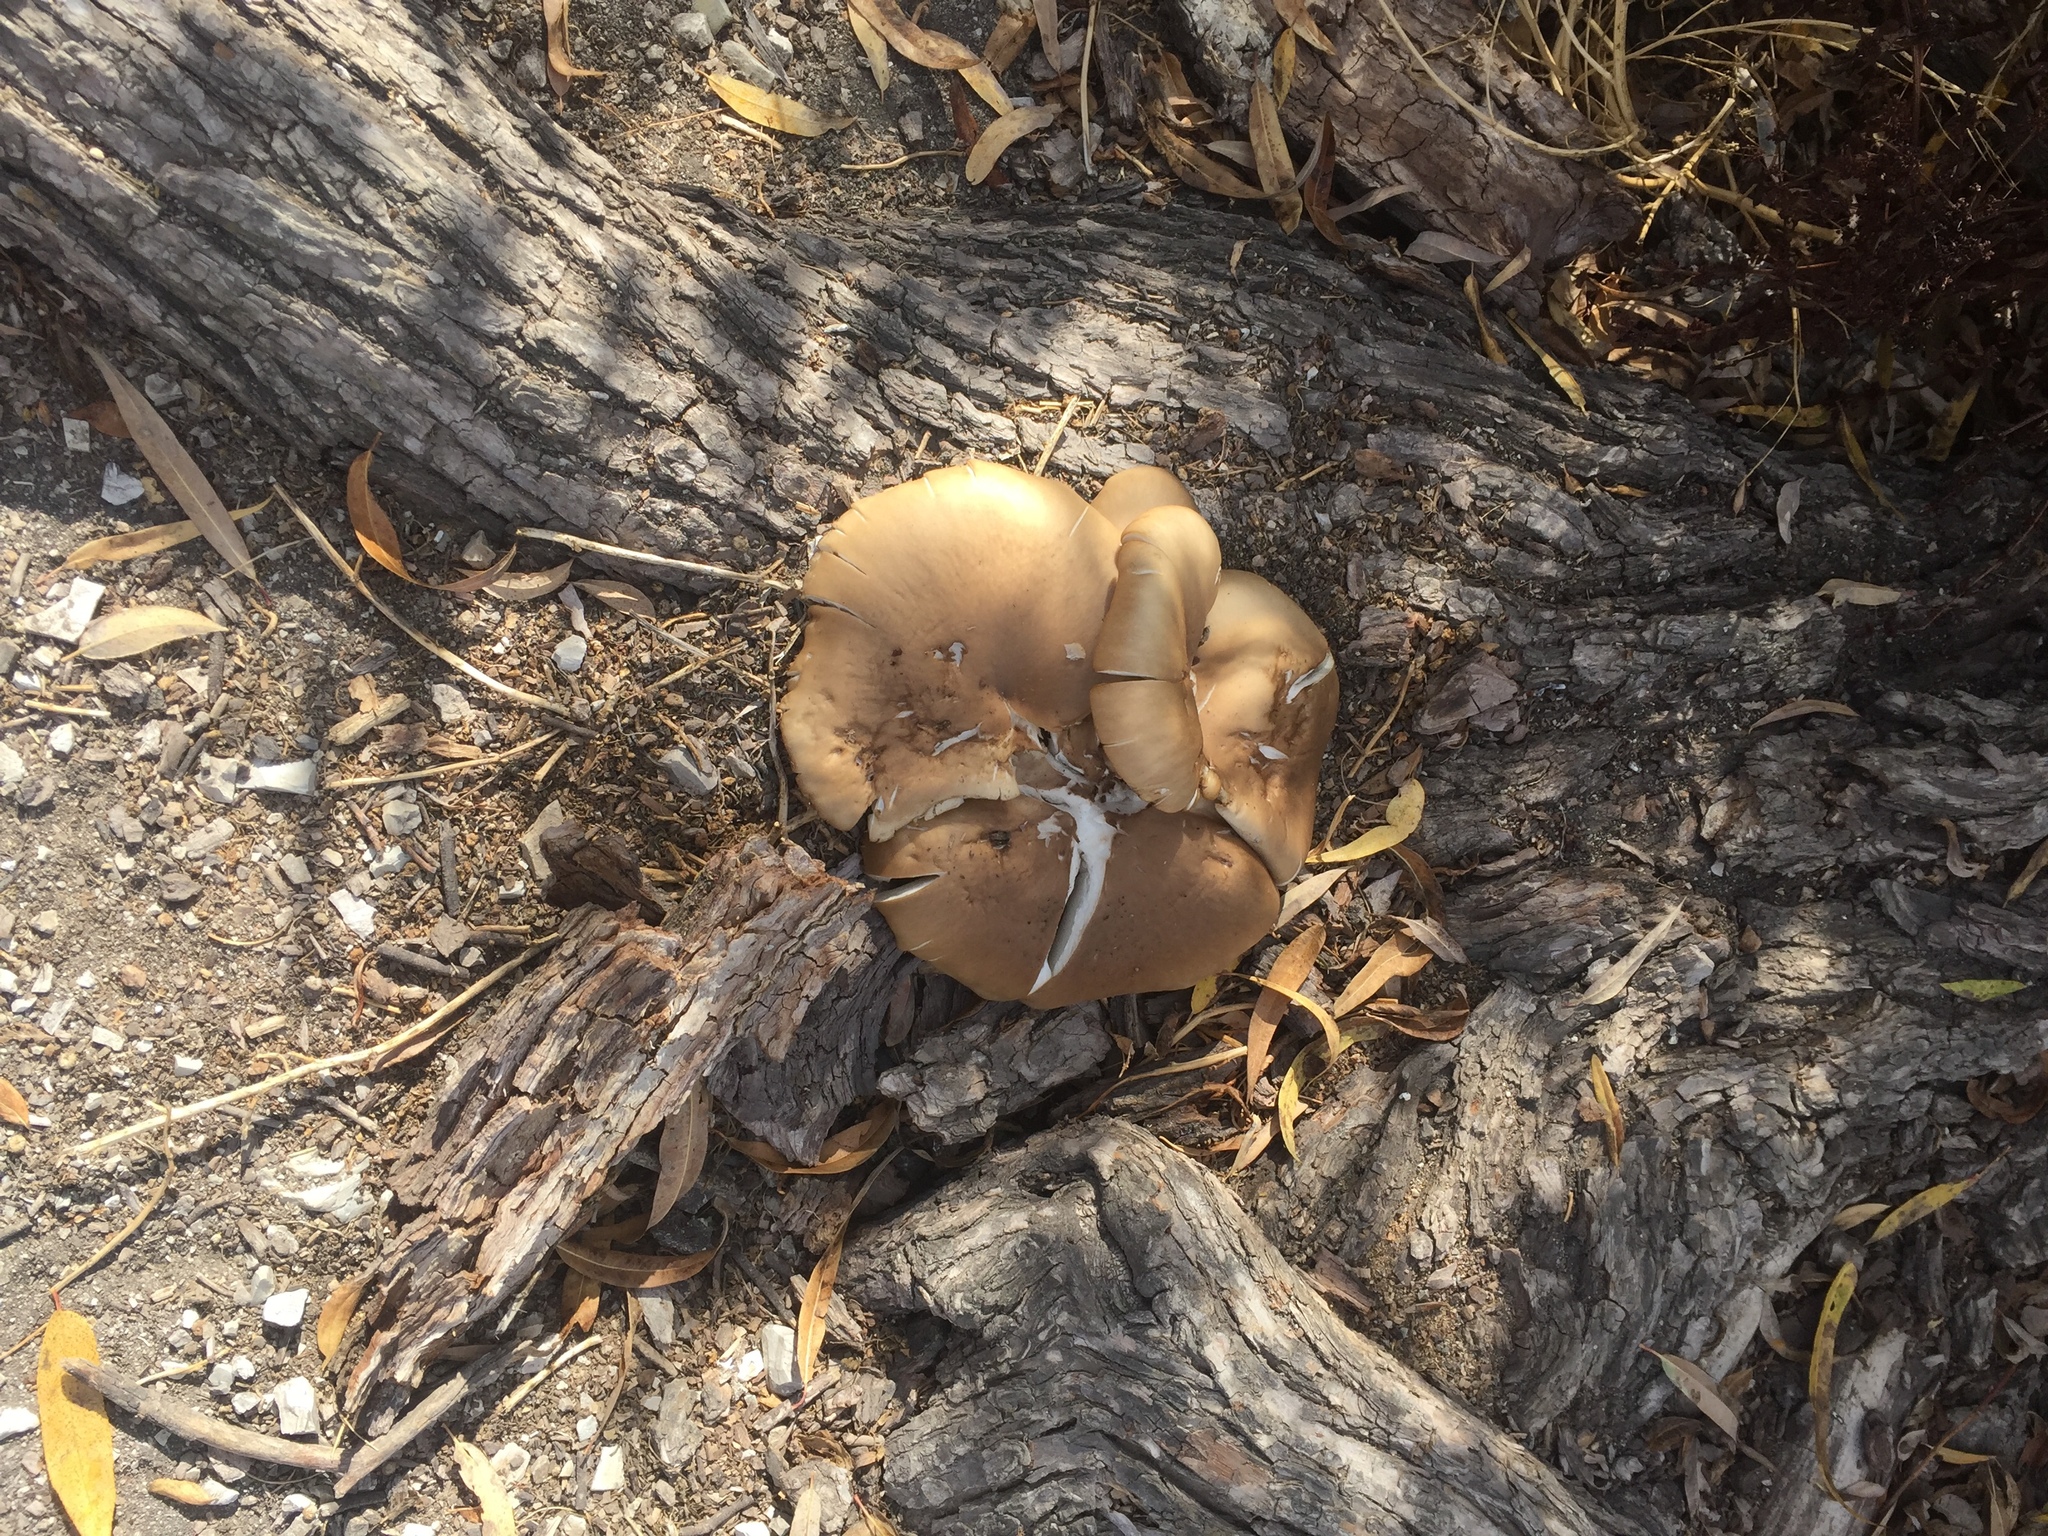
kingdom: Fungi
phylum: Basidiomycota
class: Agaricomycetes
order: Agaricales
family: Pleurotaceae
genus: Pleurotus
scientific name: Pleurotus ostreatus
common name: Oyster mushroom
